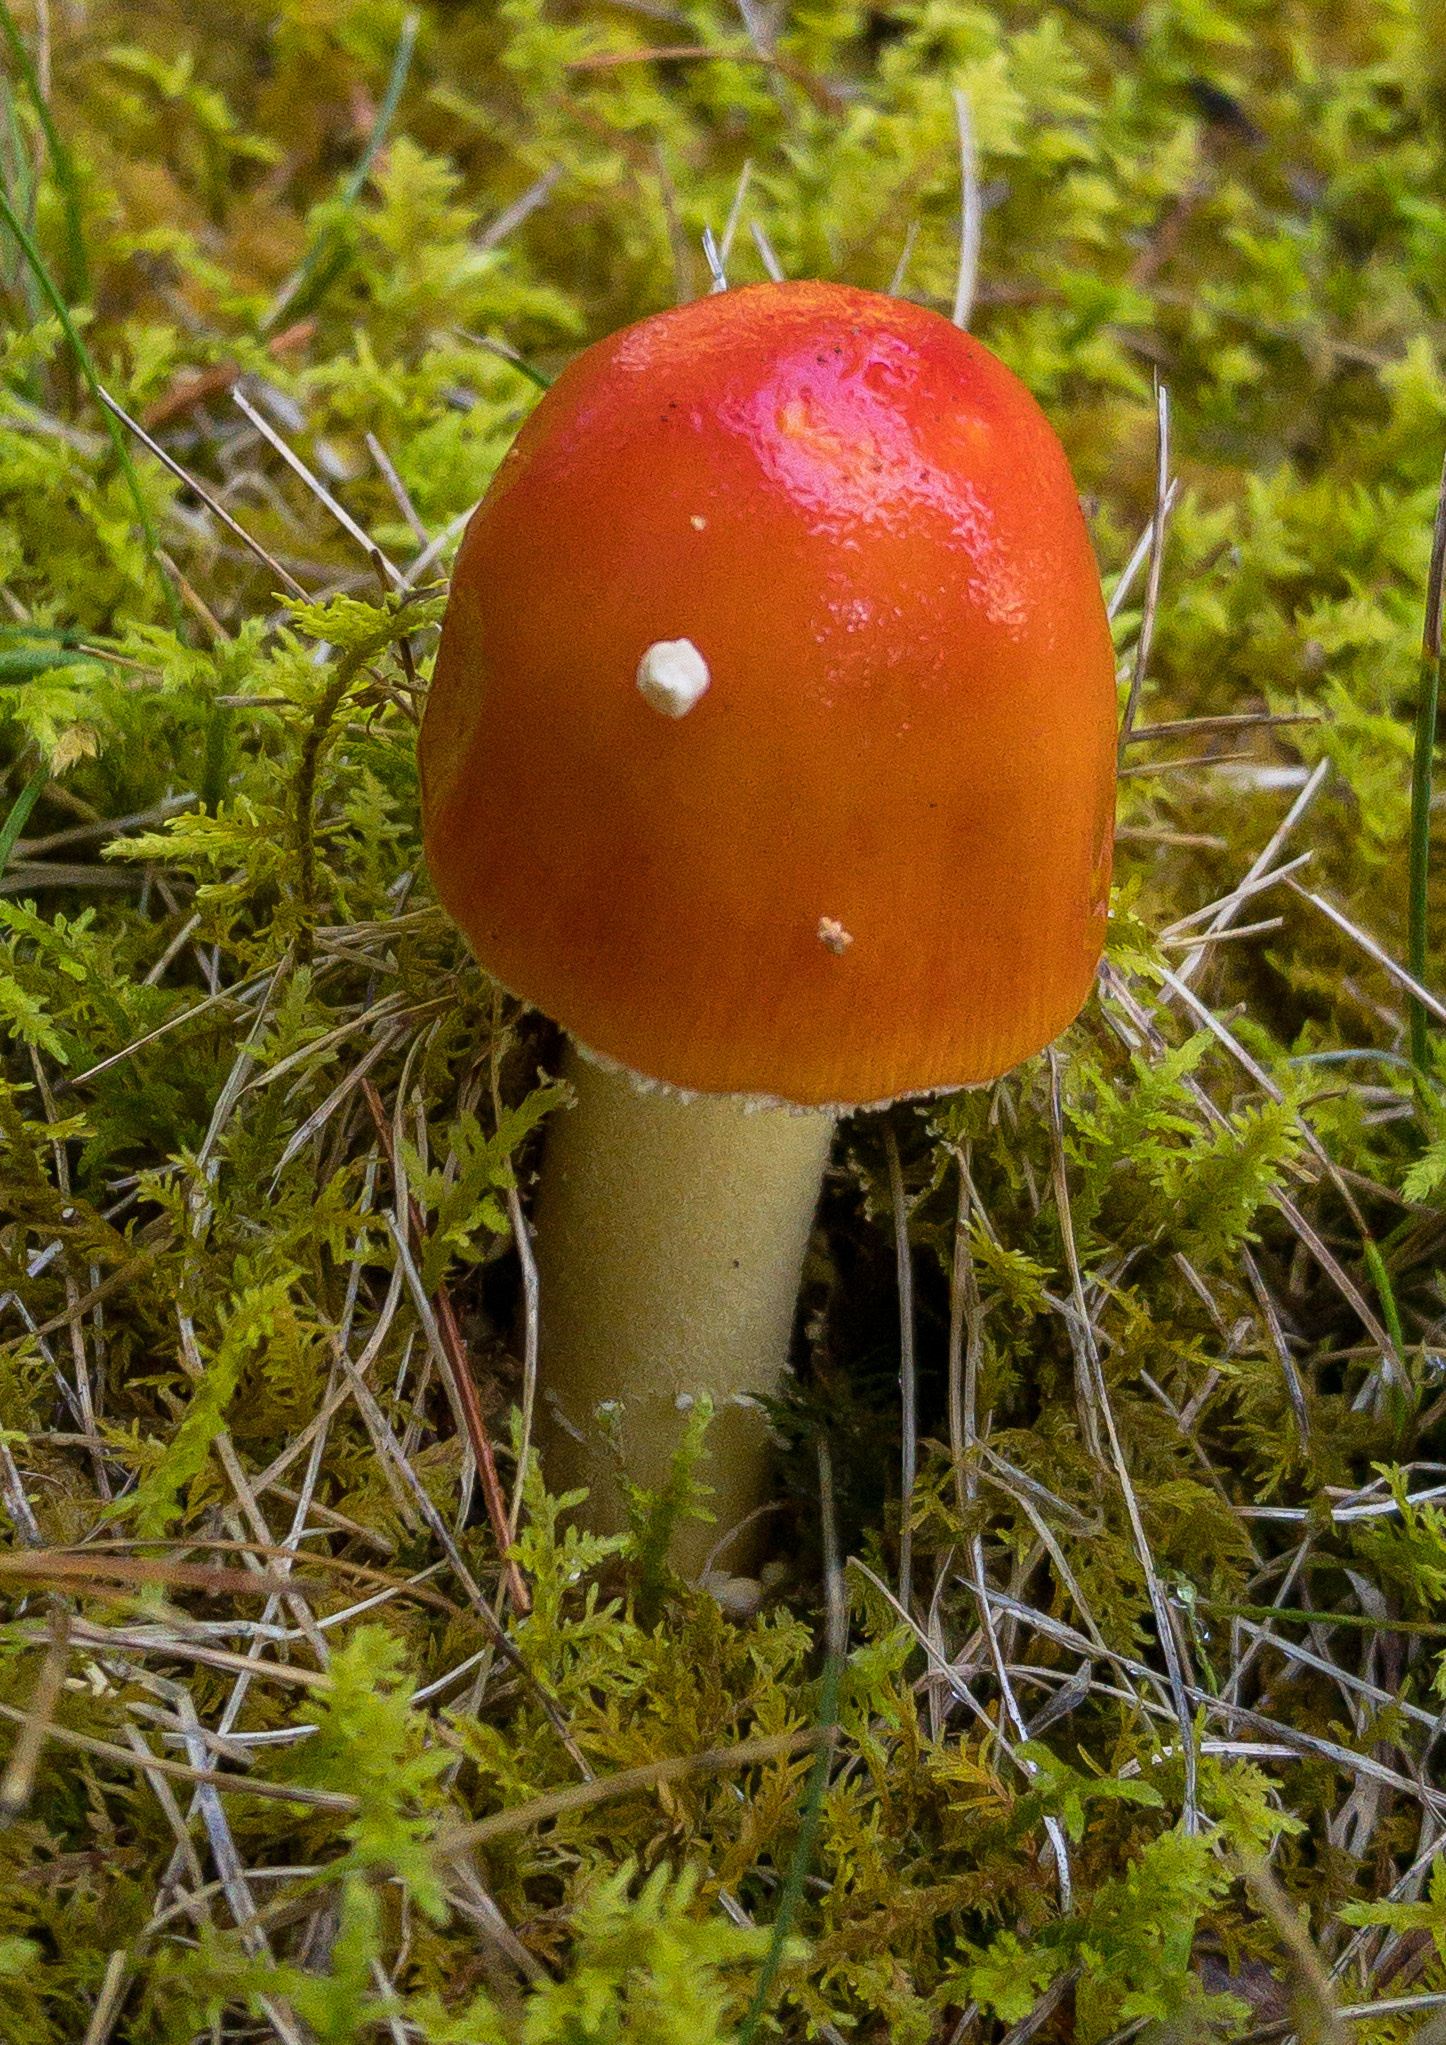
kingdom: Fungi
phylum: Basidiomycota
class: Agaricomycetes
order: Agaricales
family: Amanitaceae
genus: Amanita
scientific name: Amanita parcivolvata
